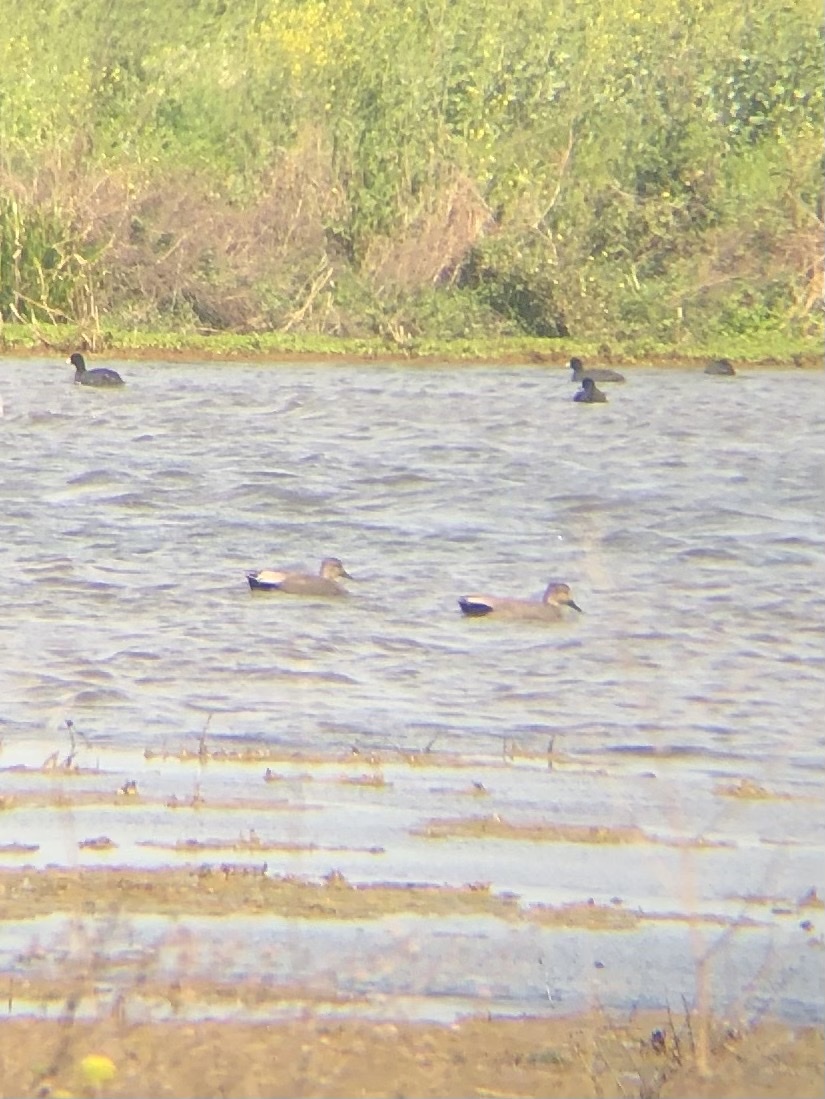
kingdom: Animalia
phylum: Chordata
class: Aves
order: Anseriformes
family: Anatidae
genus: Mareca
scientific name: Mareca strepera
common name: Gadwall
